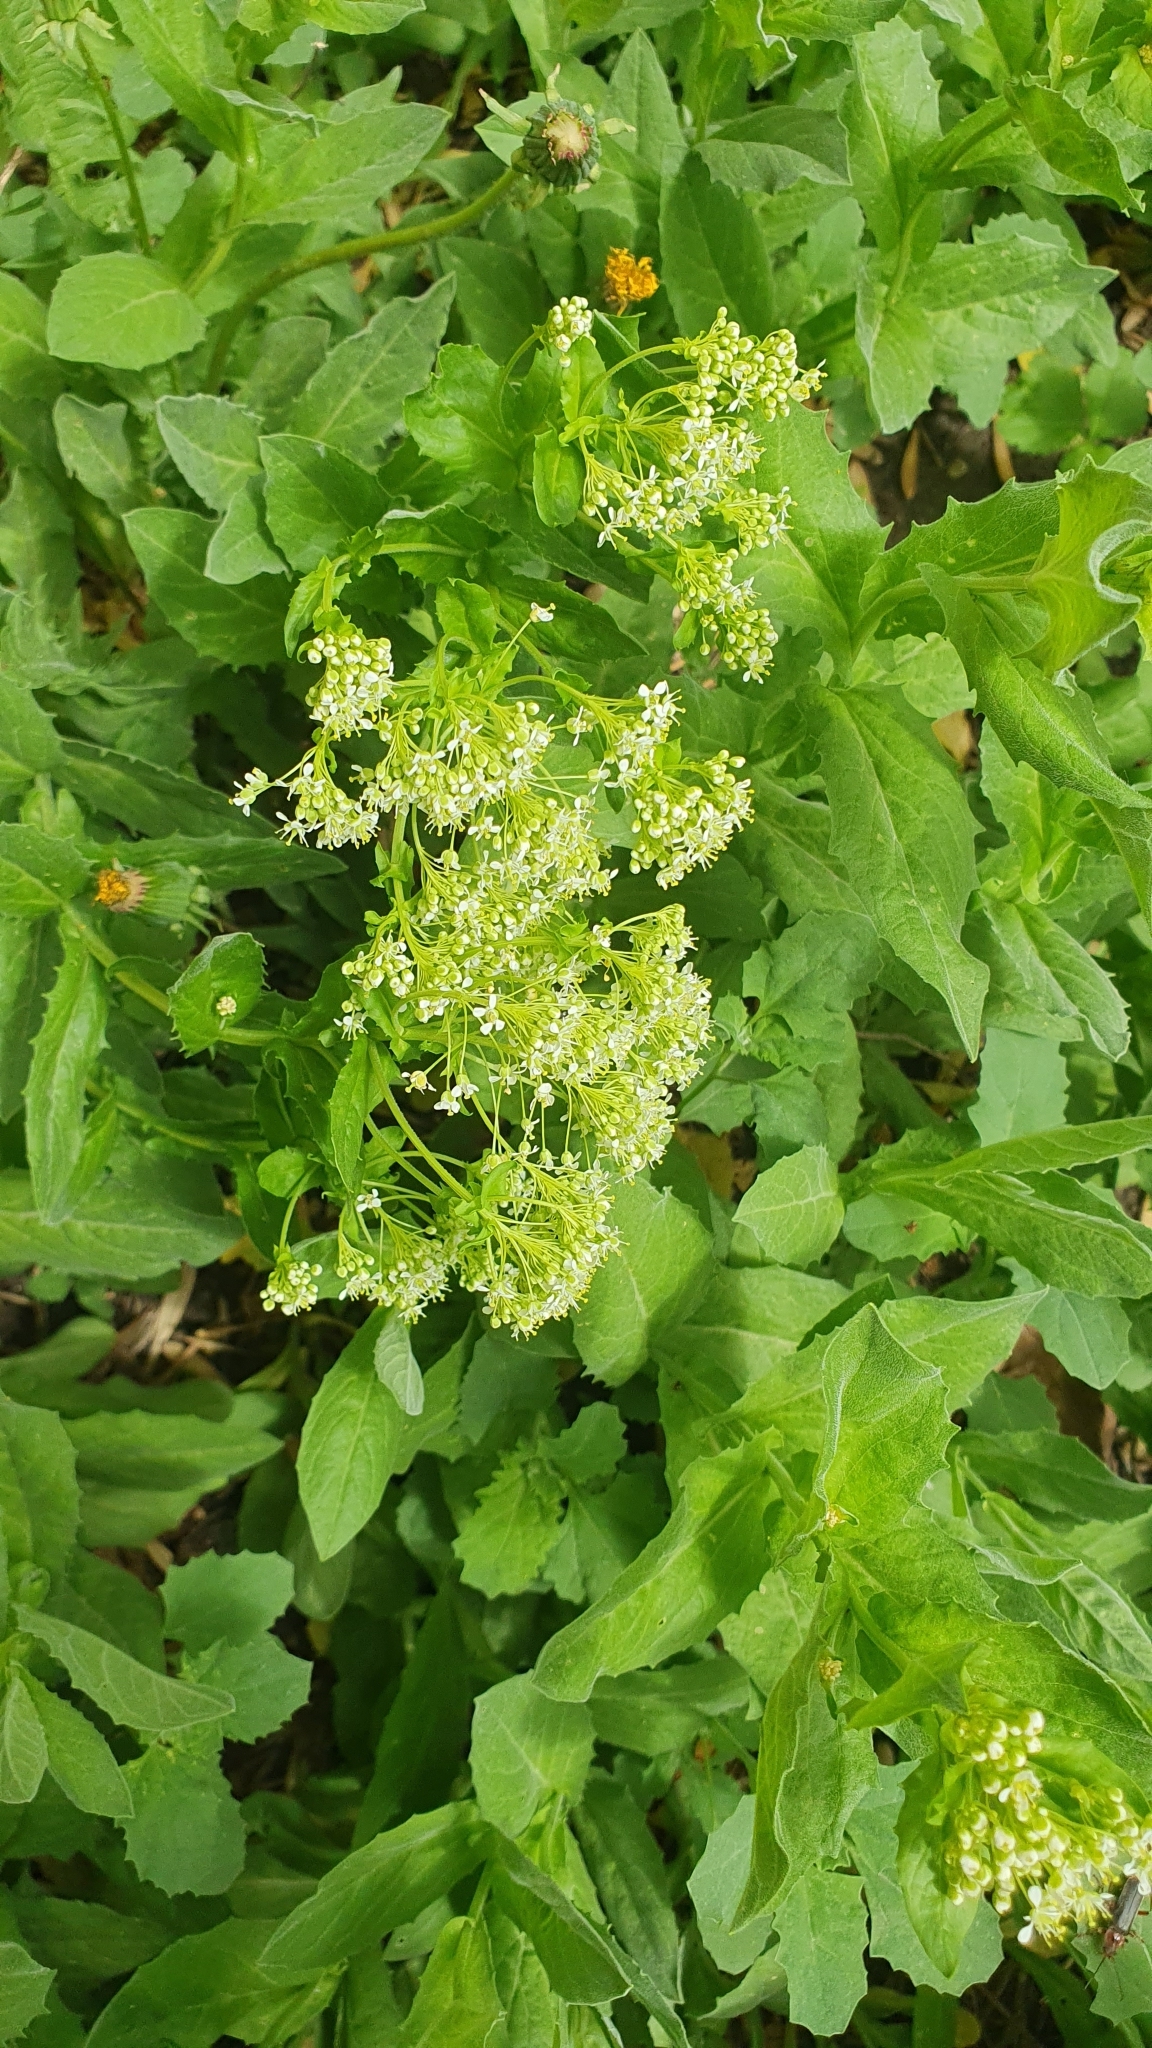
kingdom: Plantae
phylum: Tracheophyta
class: Magnoliopsida
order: Brassicales
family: Brassicaceae
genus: Lepidium
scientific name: Lepidium draba
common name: Hoary cress
